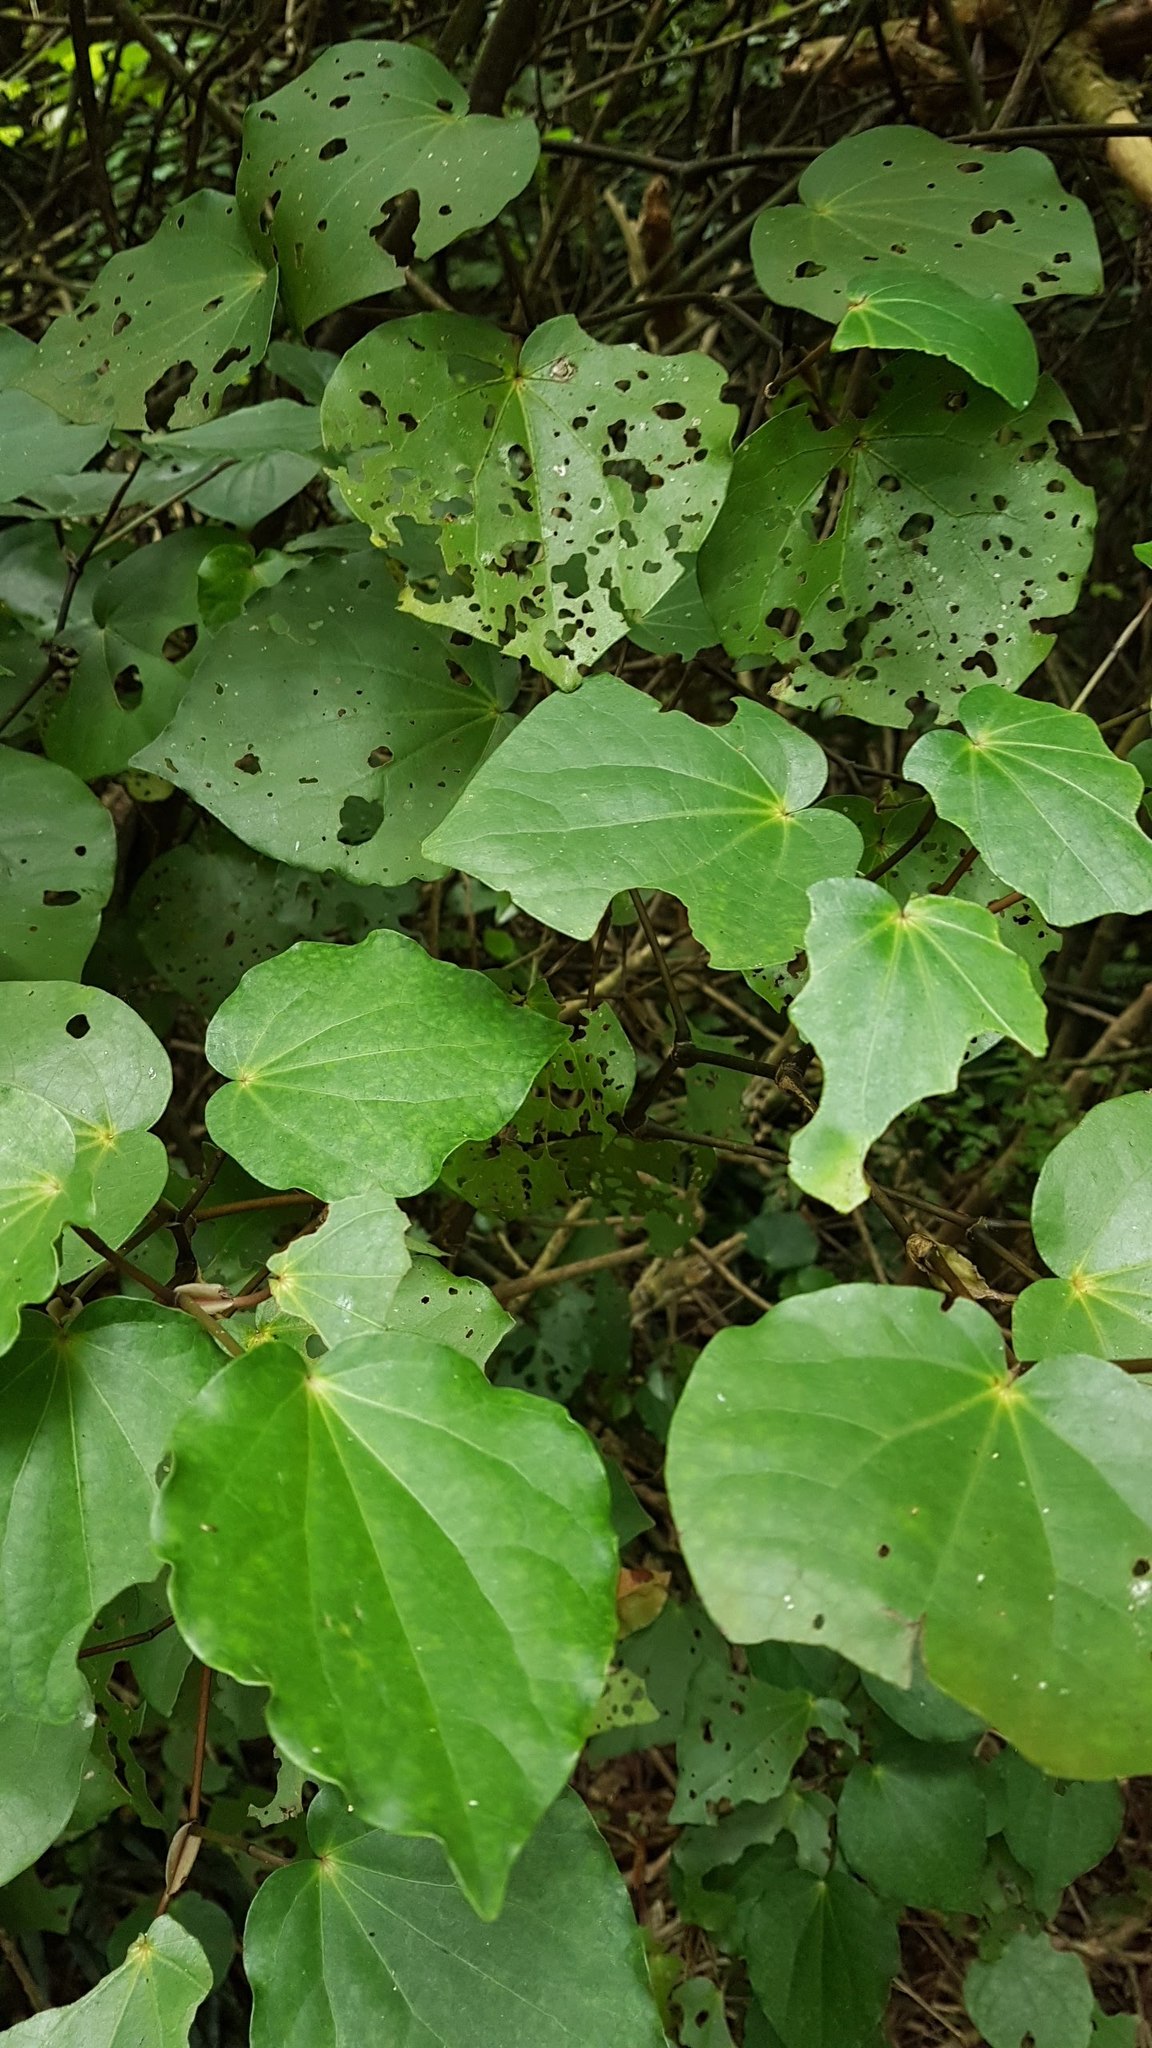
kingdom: Plantae
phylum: Tracheophyta
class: Magnoliopsida
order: Piperales
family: Piperaceae
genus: Macropiper
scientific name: Macropiper excelsum
